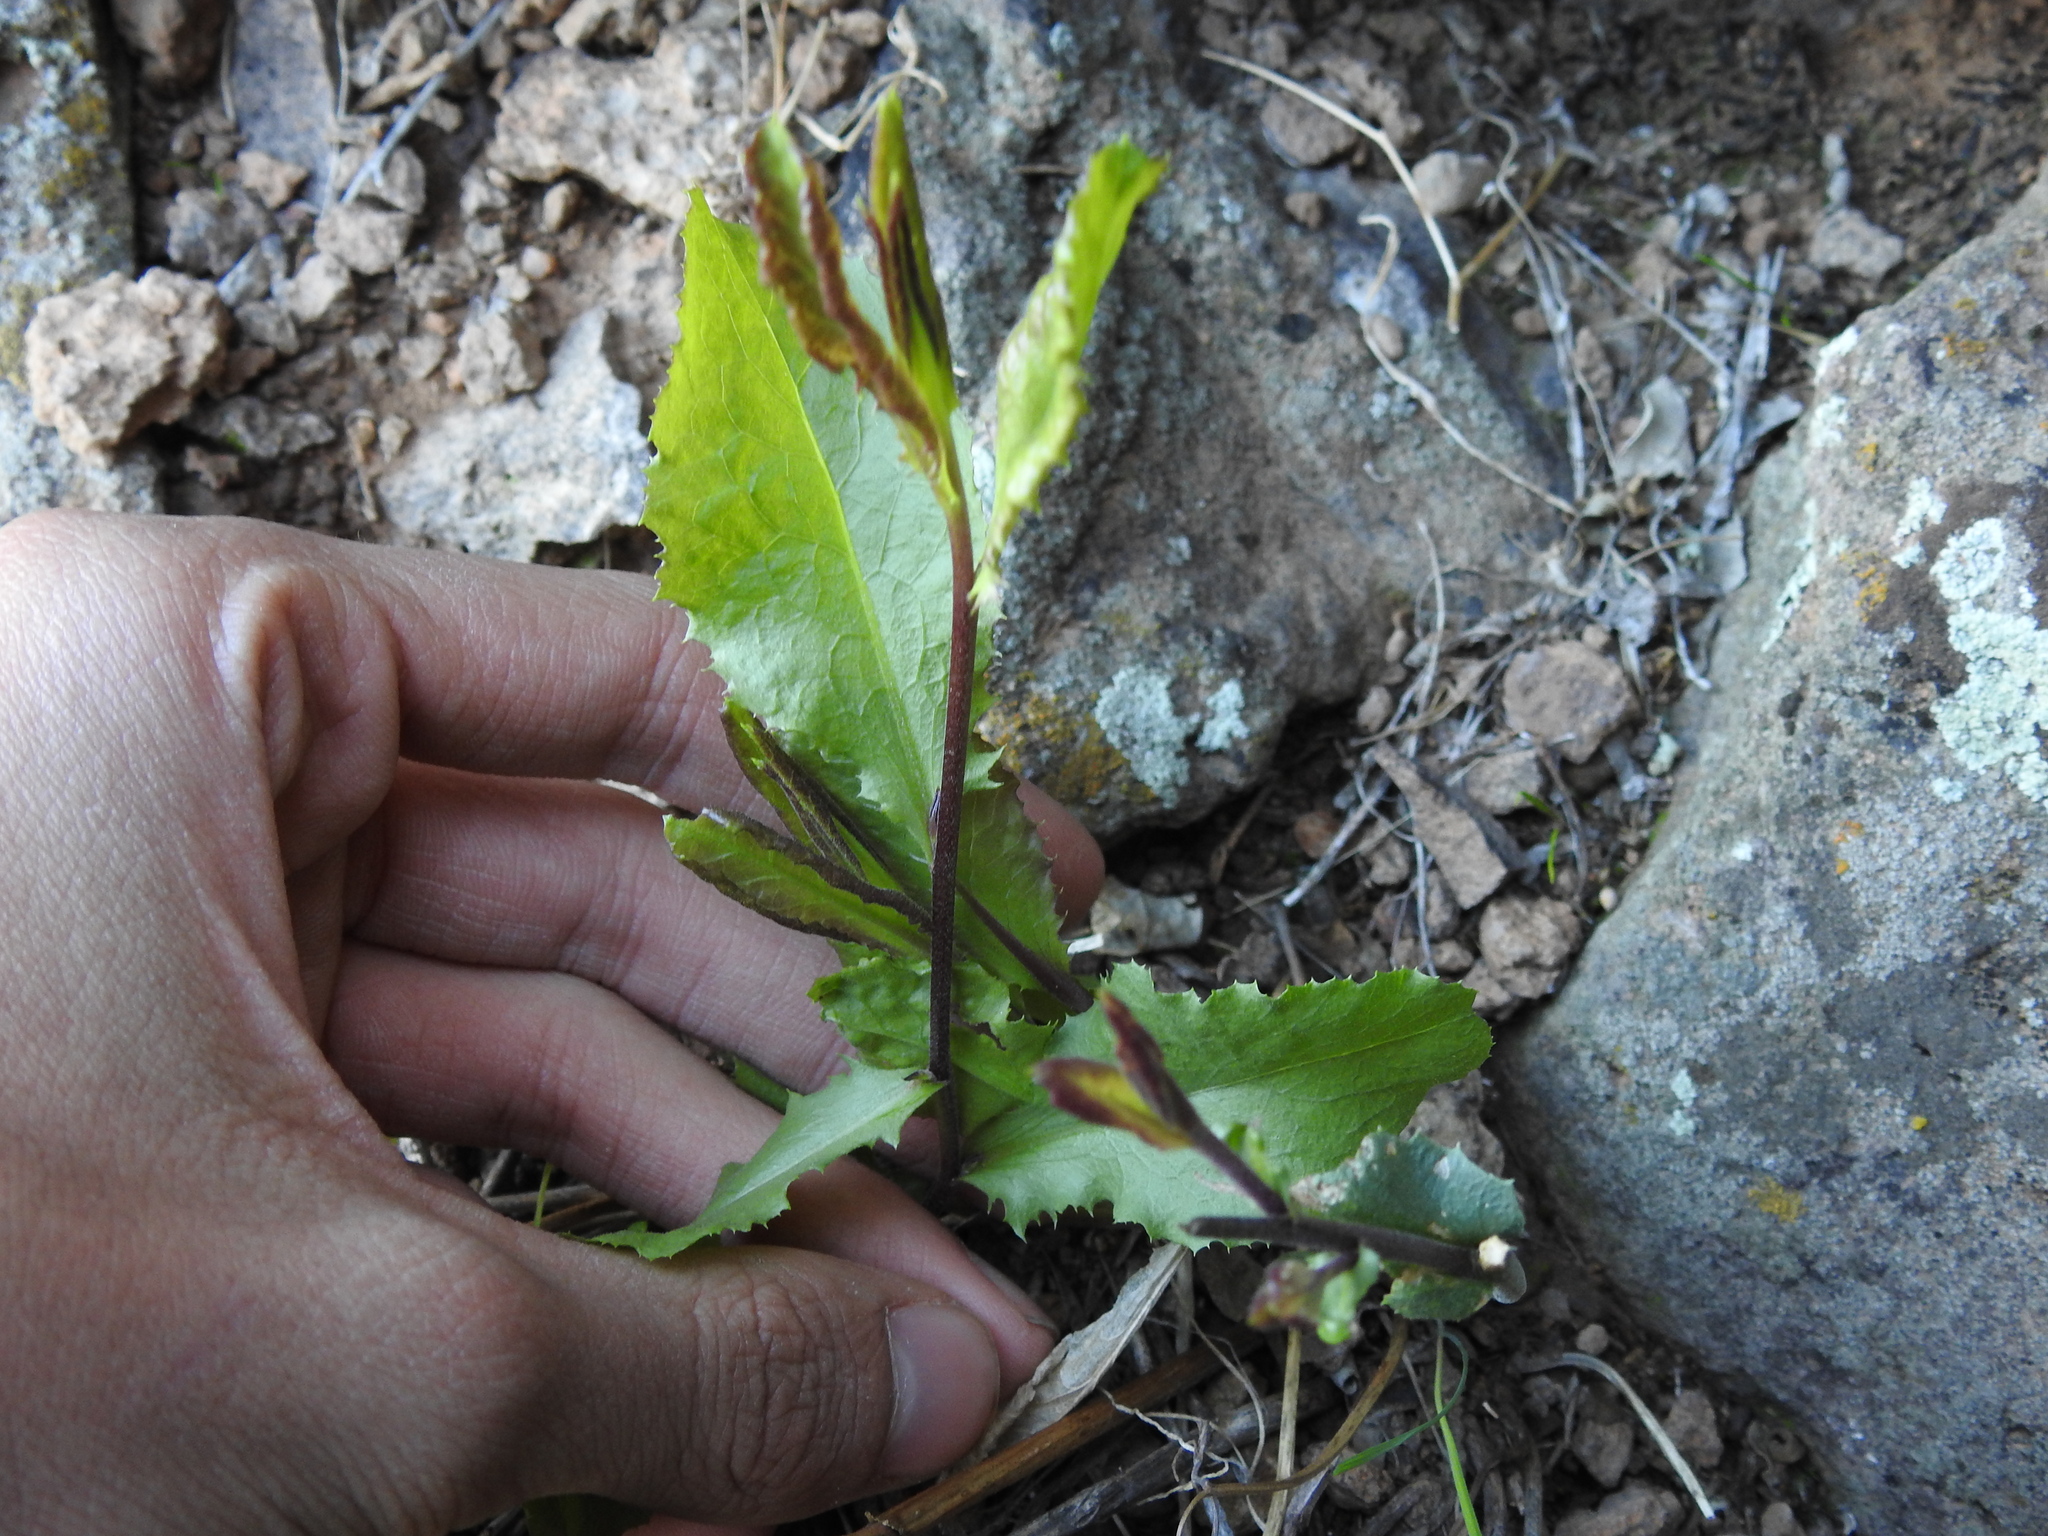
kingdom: Plantae
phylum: Tracheophyta
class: Magnoliopsida
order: Asterales
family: Asteraceae
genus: Acourtia
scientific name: Acourtia wrightii
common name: Brownfoot
